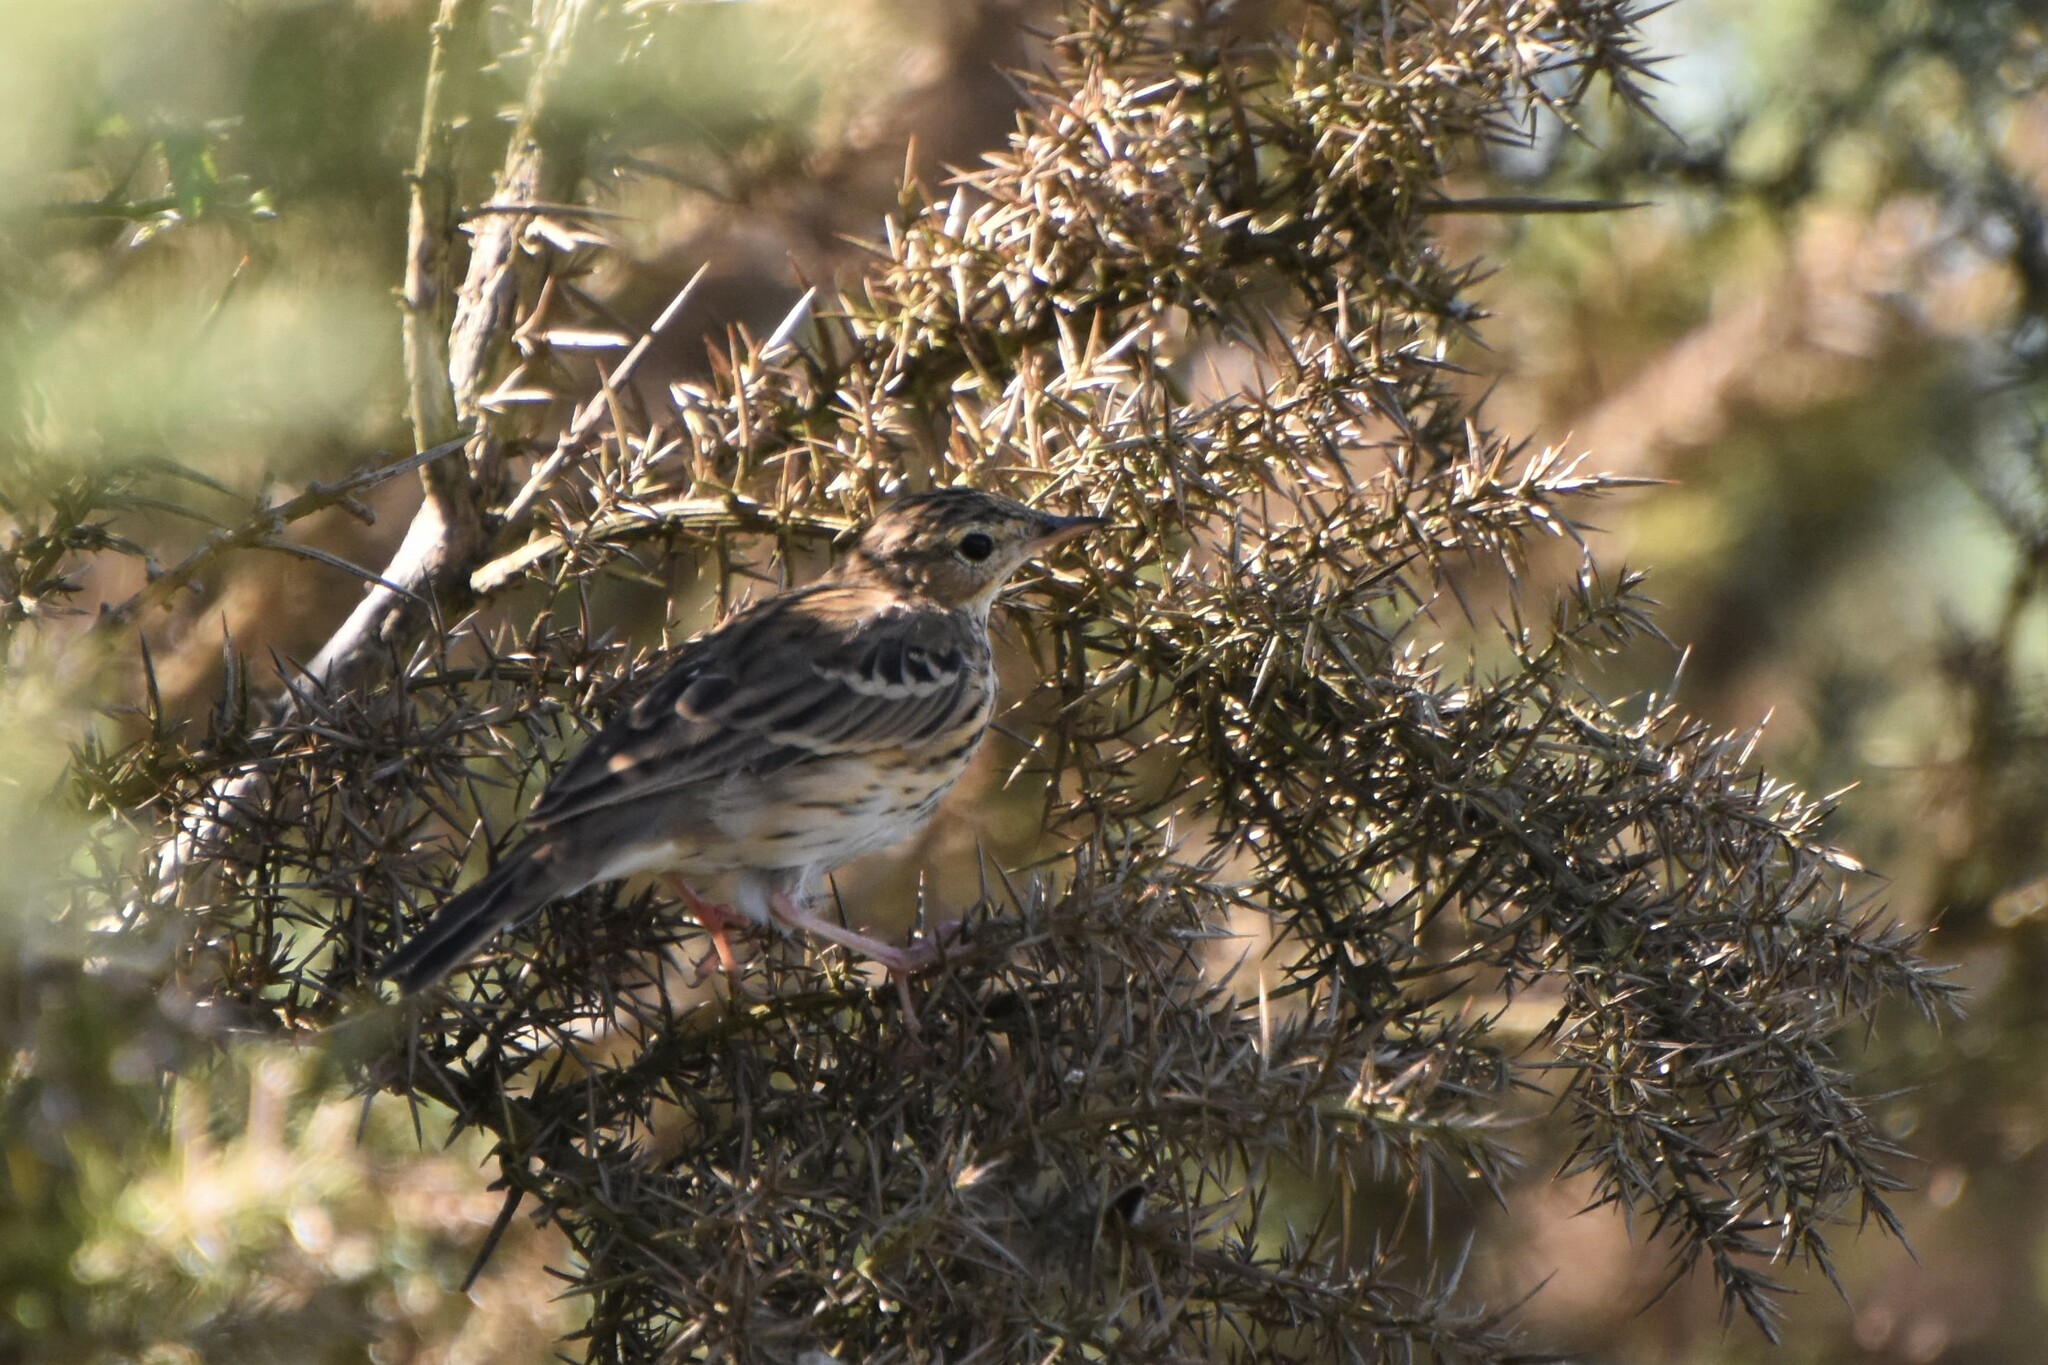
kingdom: Animalia
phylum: Chordata
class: Aves
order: Passeriformes
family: Motacillidae
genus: Anthus
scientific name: Anthus trivialis
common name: Tree pipit
